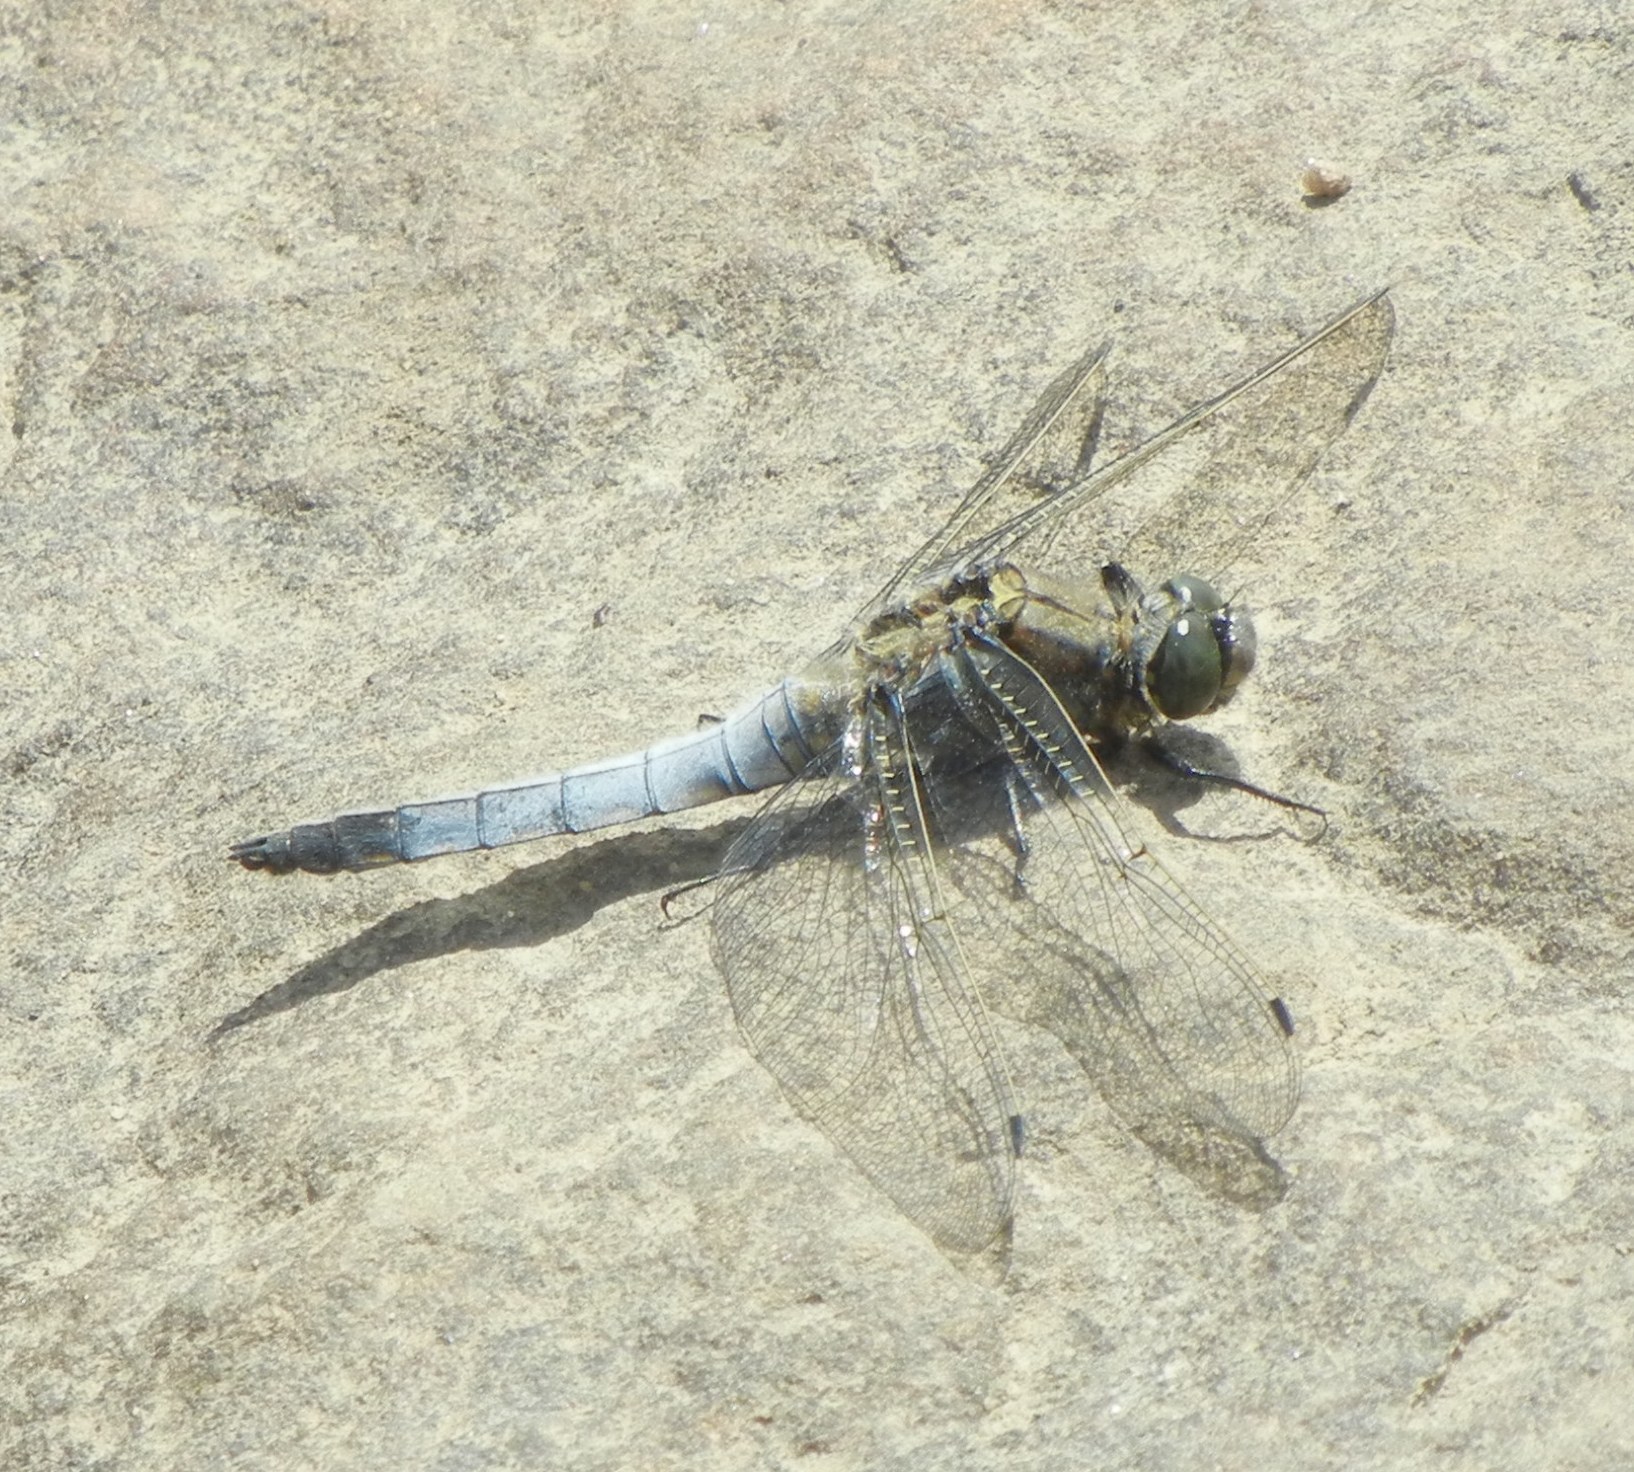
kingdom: Animalia
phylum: Arthropoda
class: Insecta
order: Odonata
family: Libellulidae
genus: Orthetrum
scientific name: Orthetrum cancellatum
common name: Black-tailed skimmer
